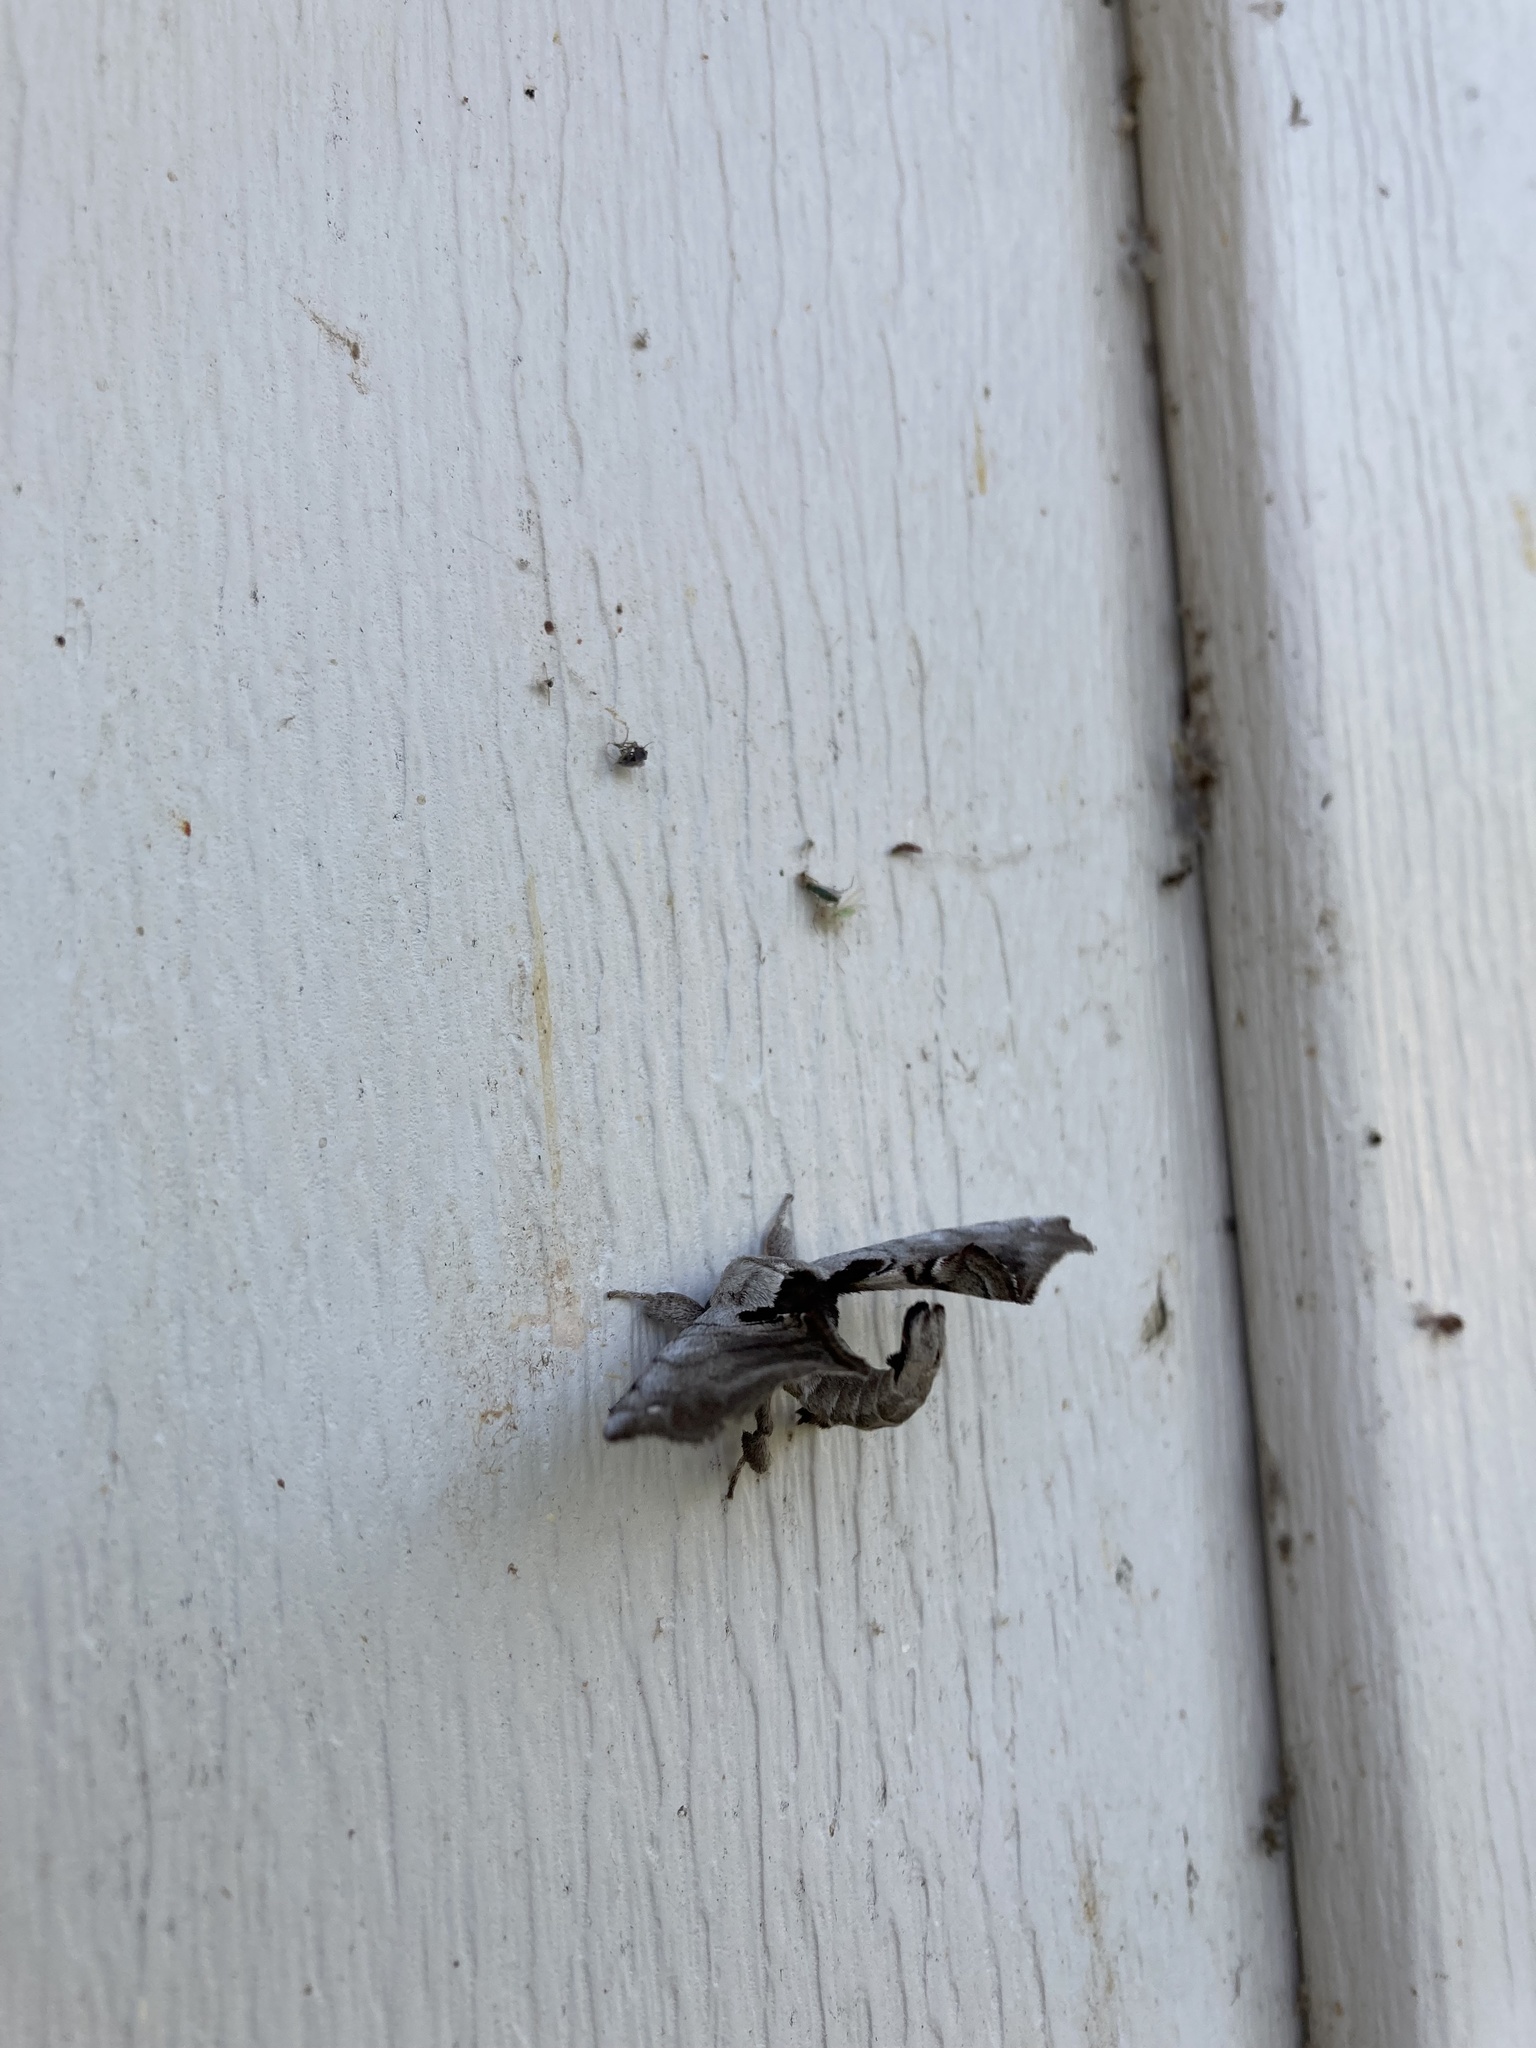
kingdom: Animalia
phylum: Arthropoda
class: Insecta
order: Lepidoptera
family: Apatelodidae
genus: Hygrochroa
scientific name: Hygrochroa Apatelodes torrefacta
